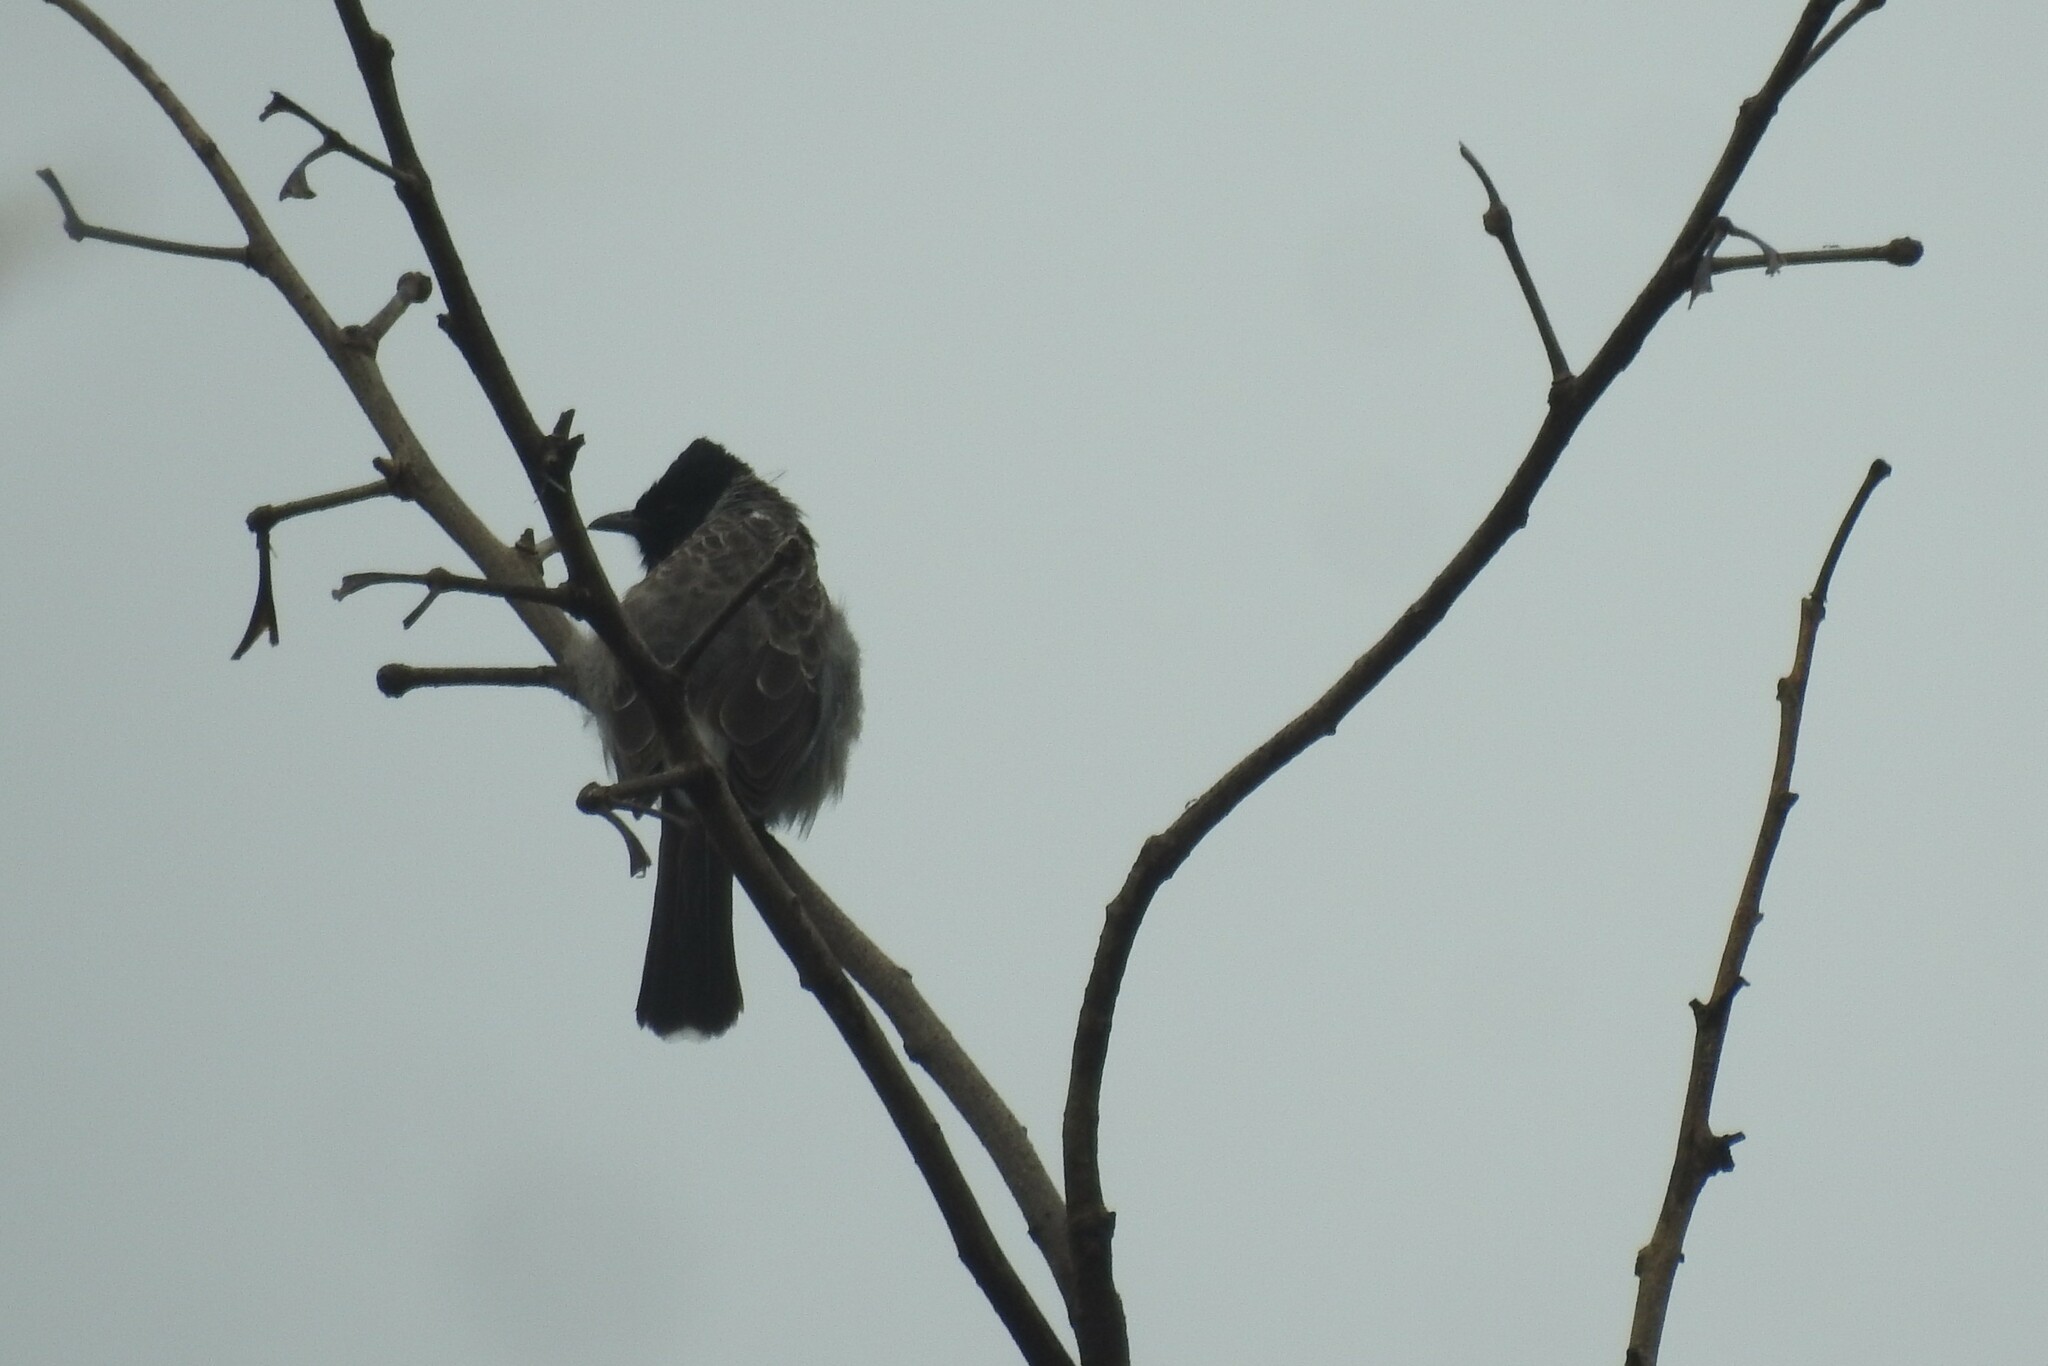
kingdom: Animalia
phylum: Chordata
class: Aves
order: Passeriformes
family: Pycnonotidae
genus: Pycnonotus
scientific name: Pycnonotus cafer
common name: Red-vented bulbul
